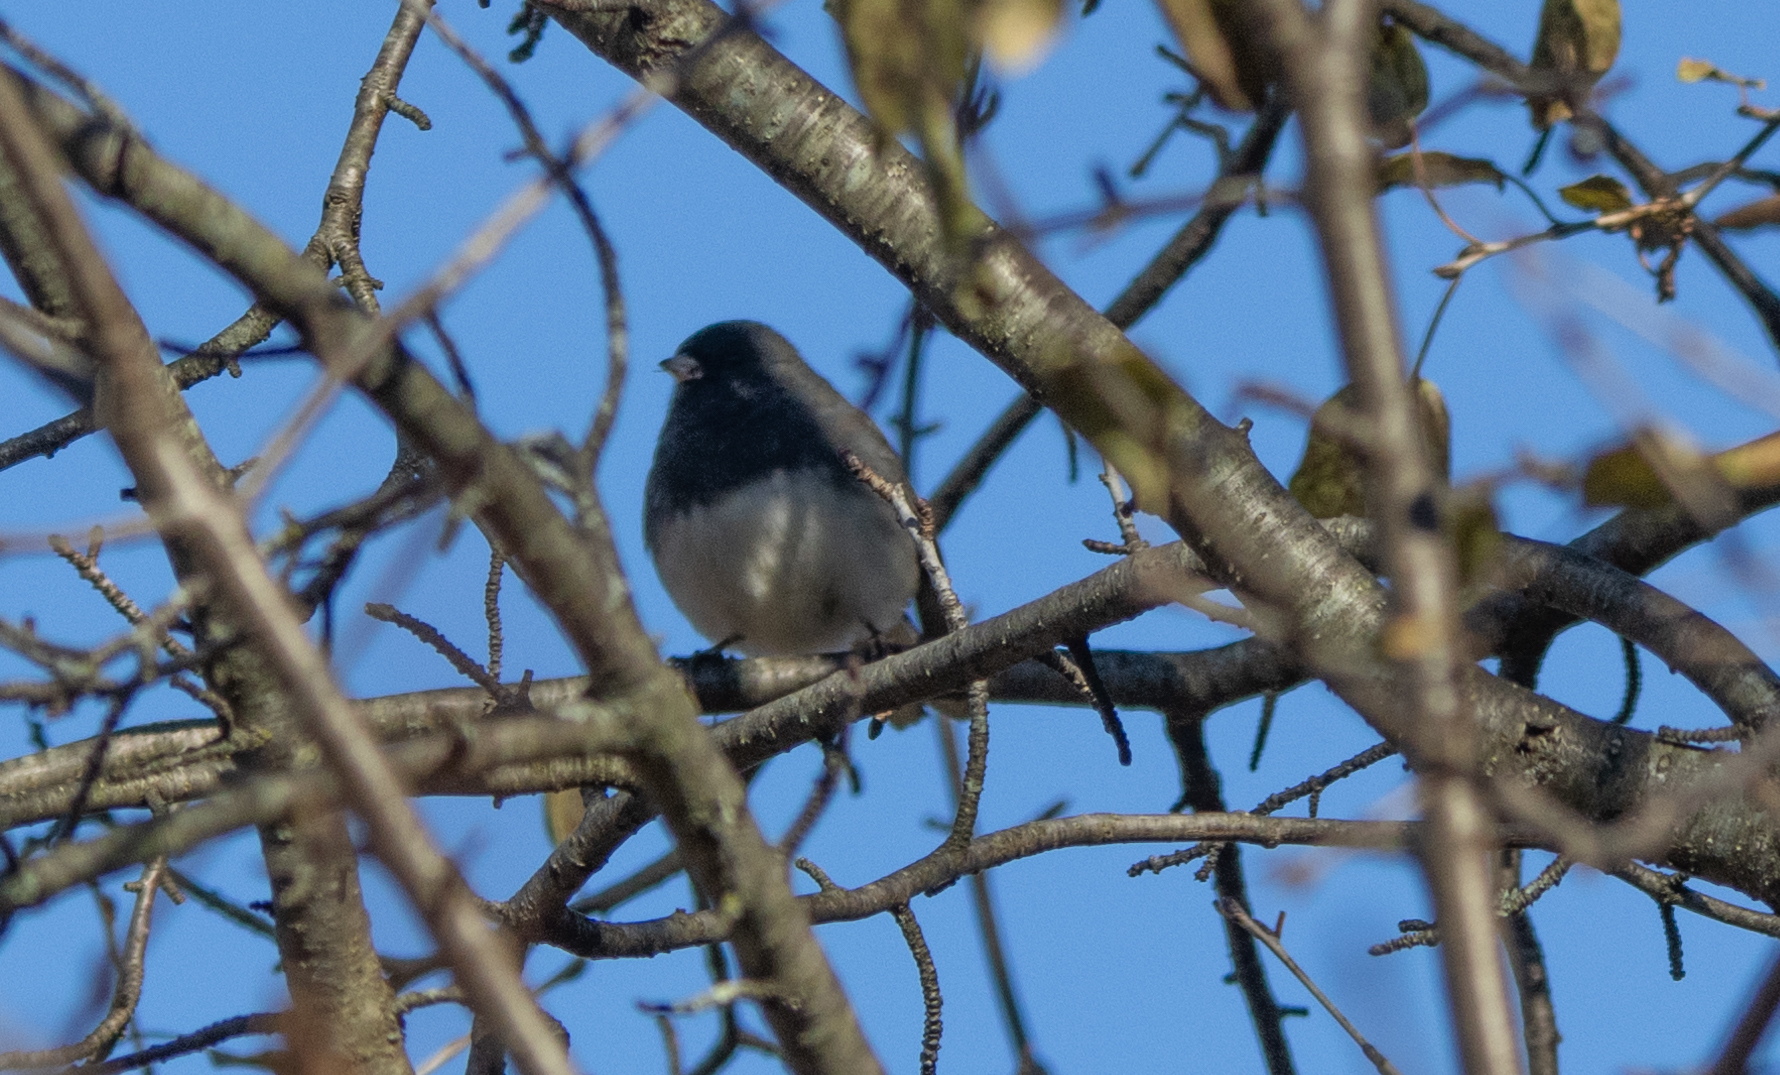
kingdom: Animalia
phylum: Chordata
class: Aves
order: Passeriformes
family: Passerellidae
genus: Junco
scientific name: Junco hyemalis
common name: Dark-eyed junco
